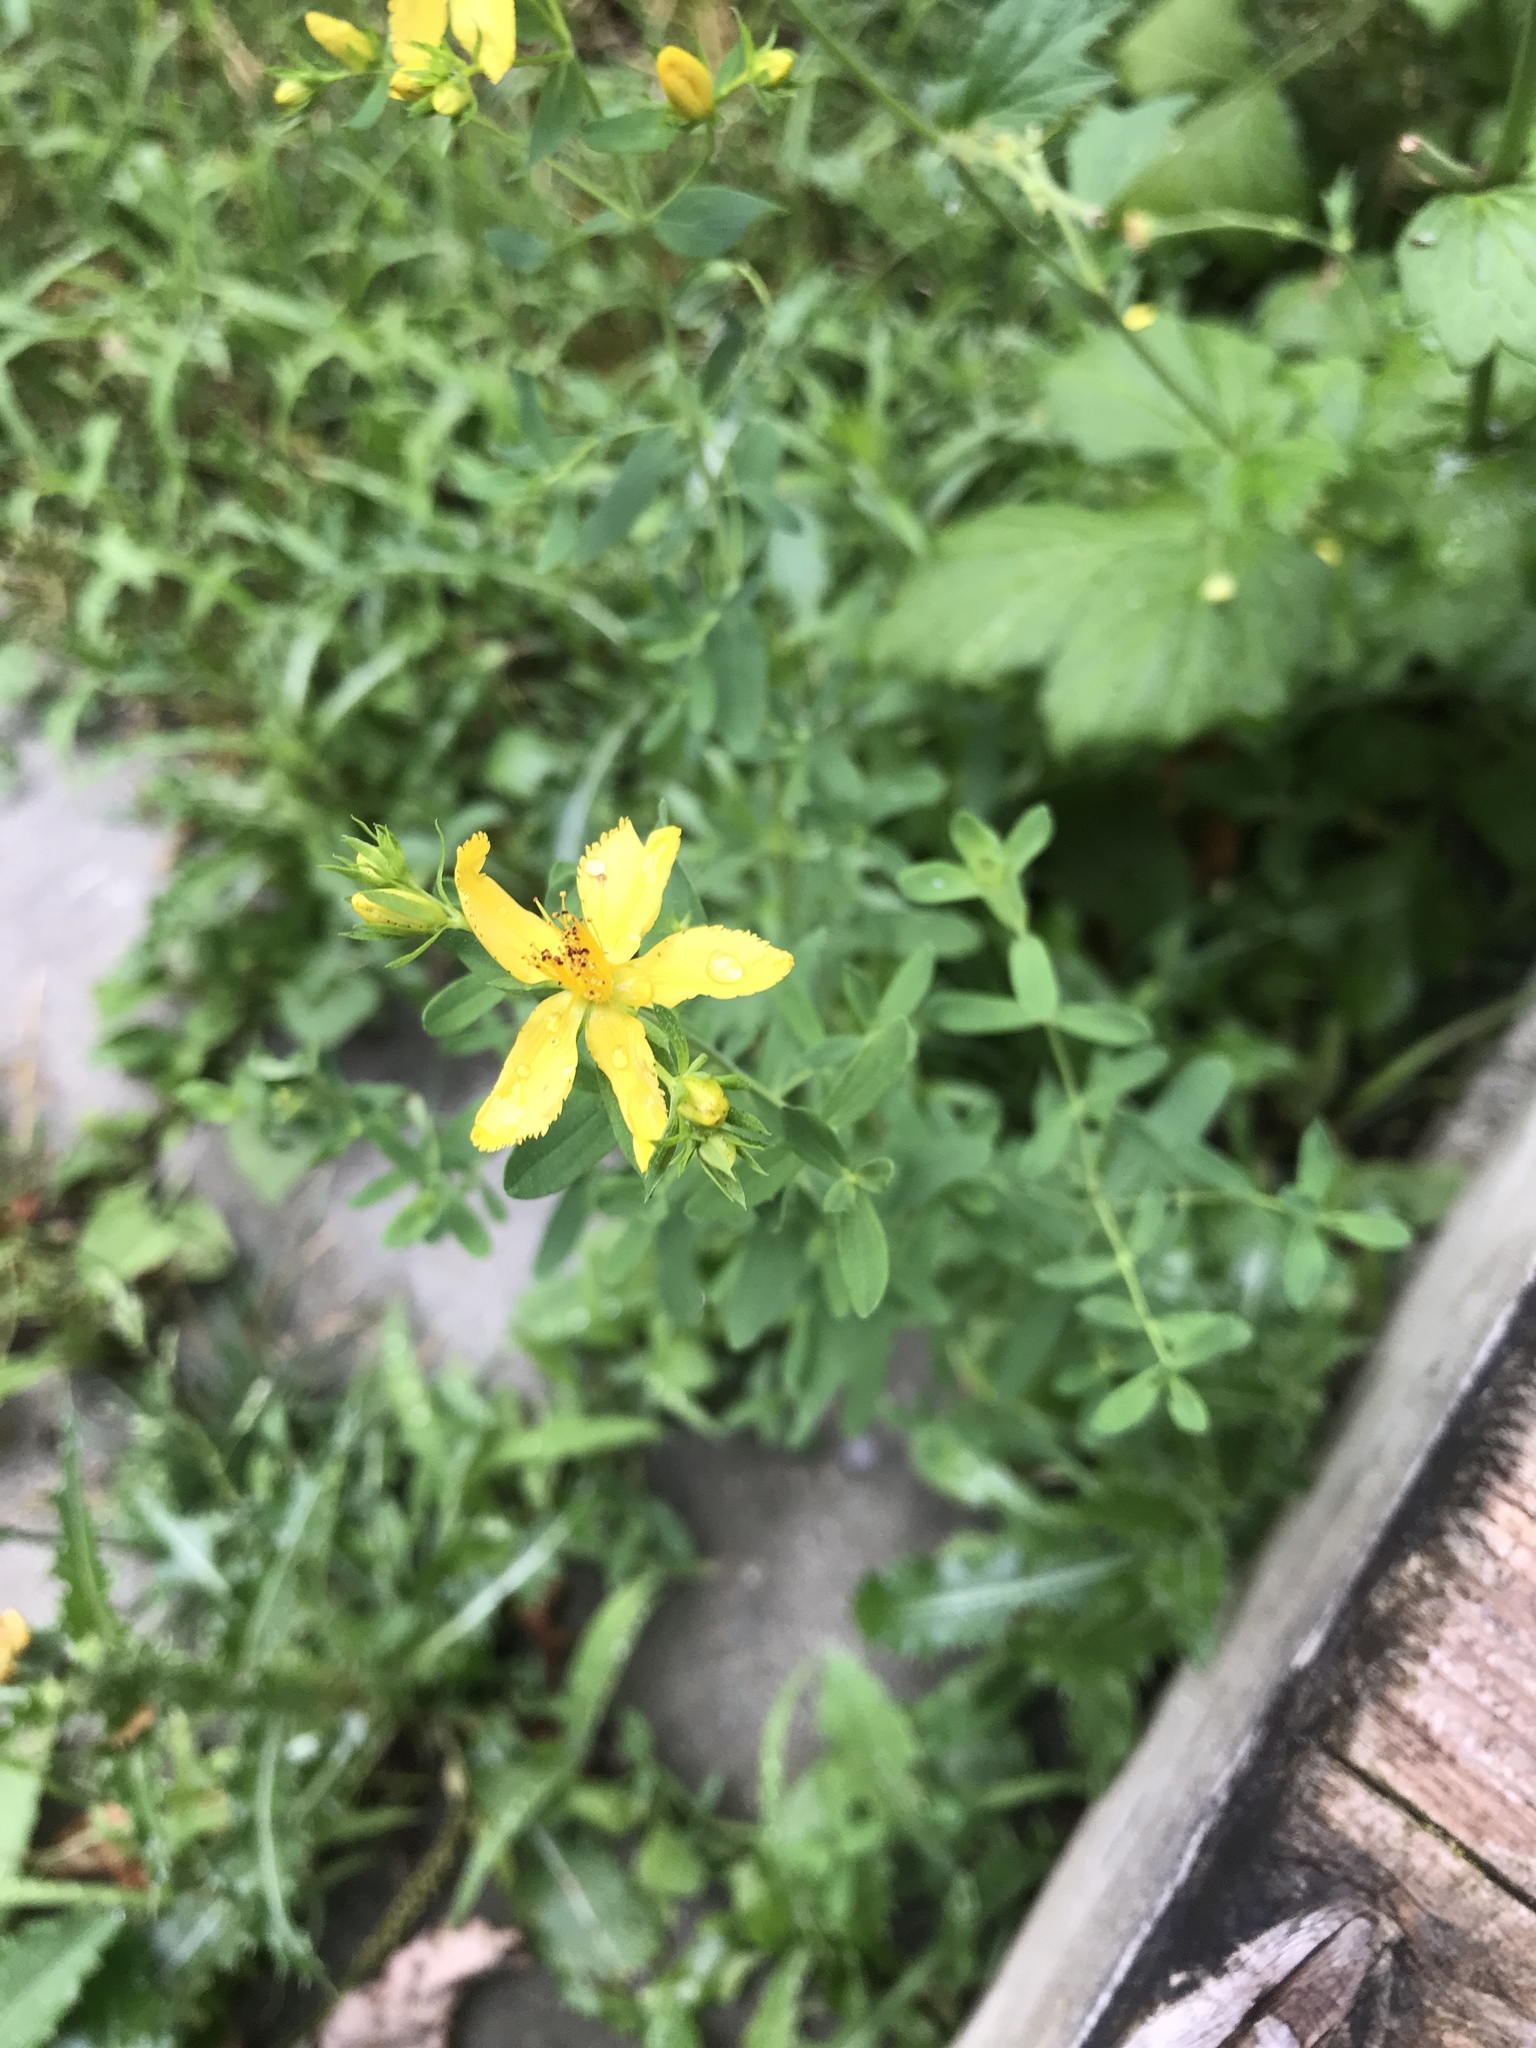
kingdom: Plantae
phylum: Tracheophyta
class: Magnoliopsida
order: Malpighiales
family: Hypericaceae
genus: Hypericum
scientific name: Hypericum perforatum
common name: Common st. johnswort
